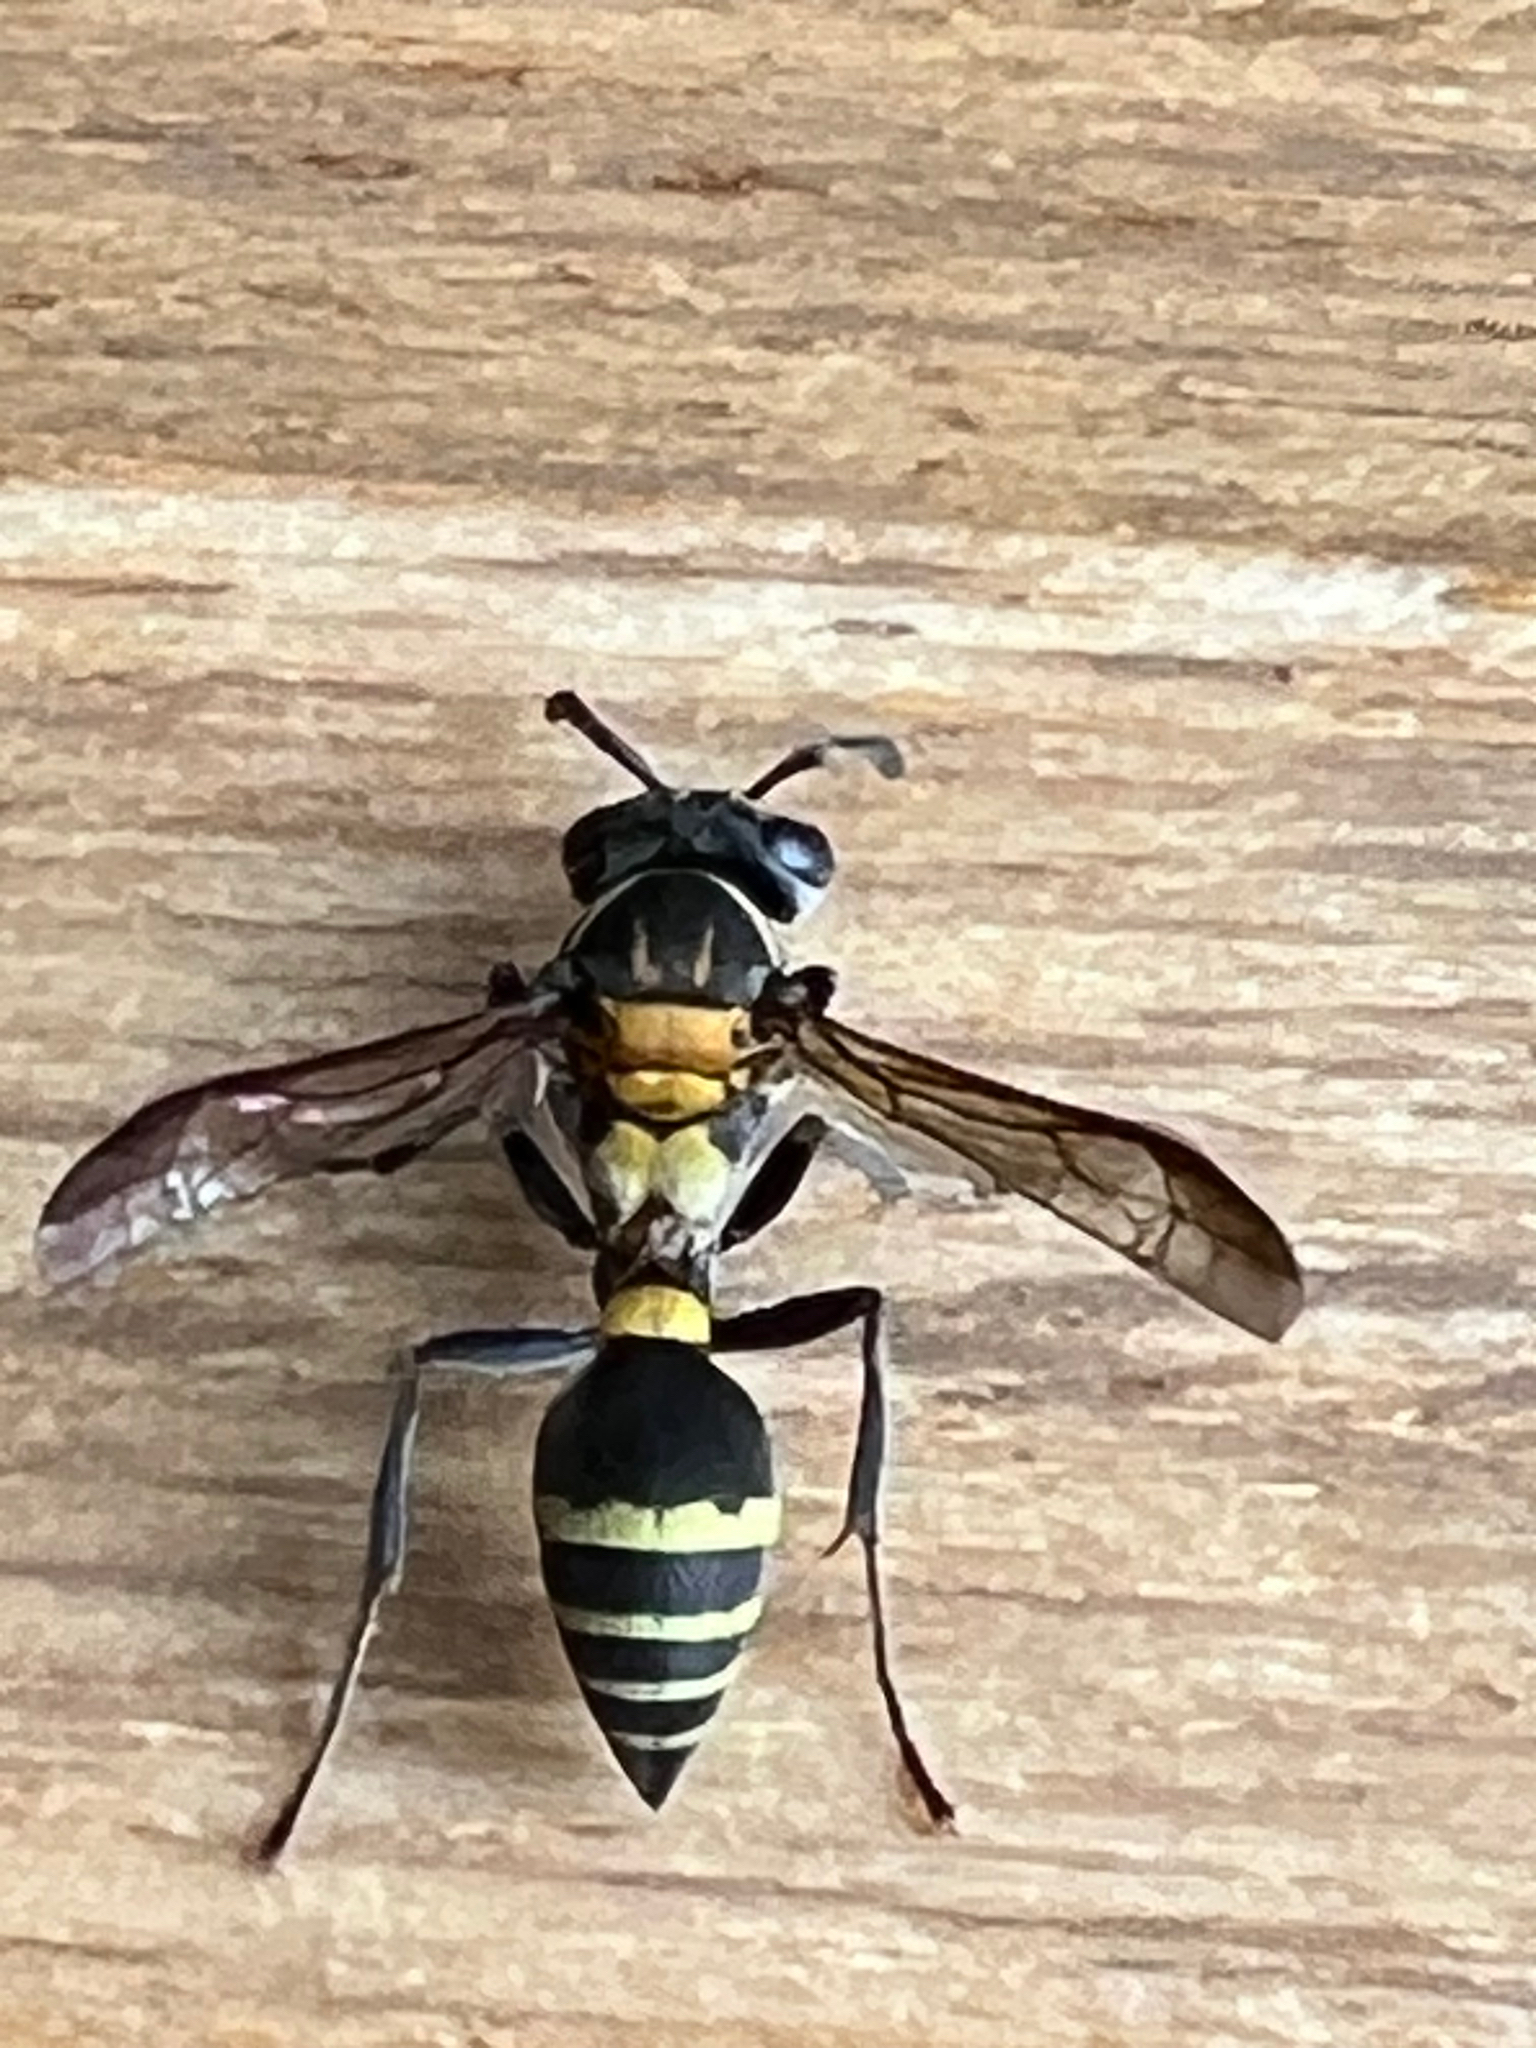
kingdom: Animalia
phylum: Arthropoda
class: Insecta
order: Hymenoptera
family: Eumenidae
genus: Polybia
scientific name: Polybia occidentalis
